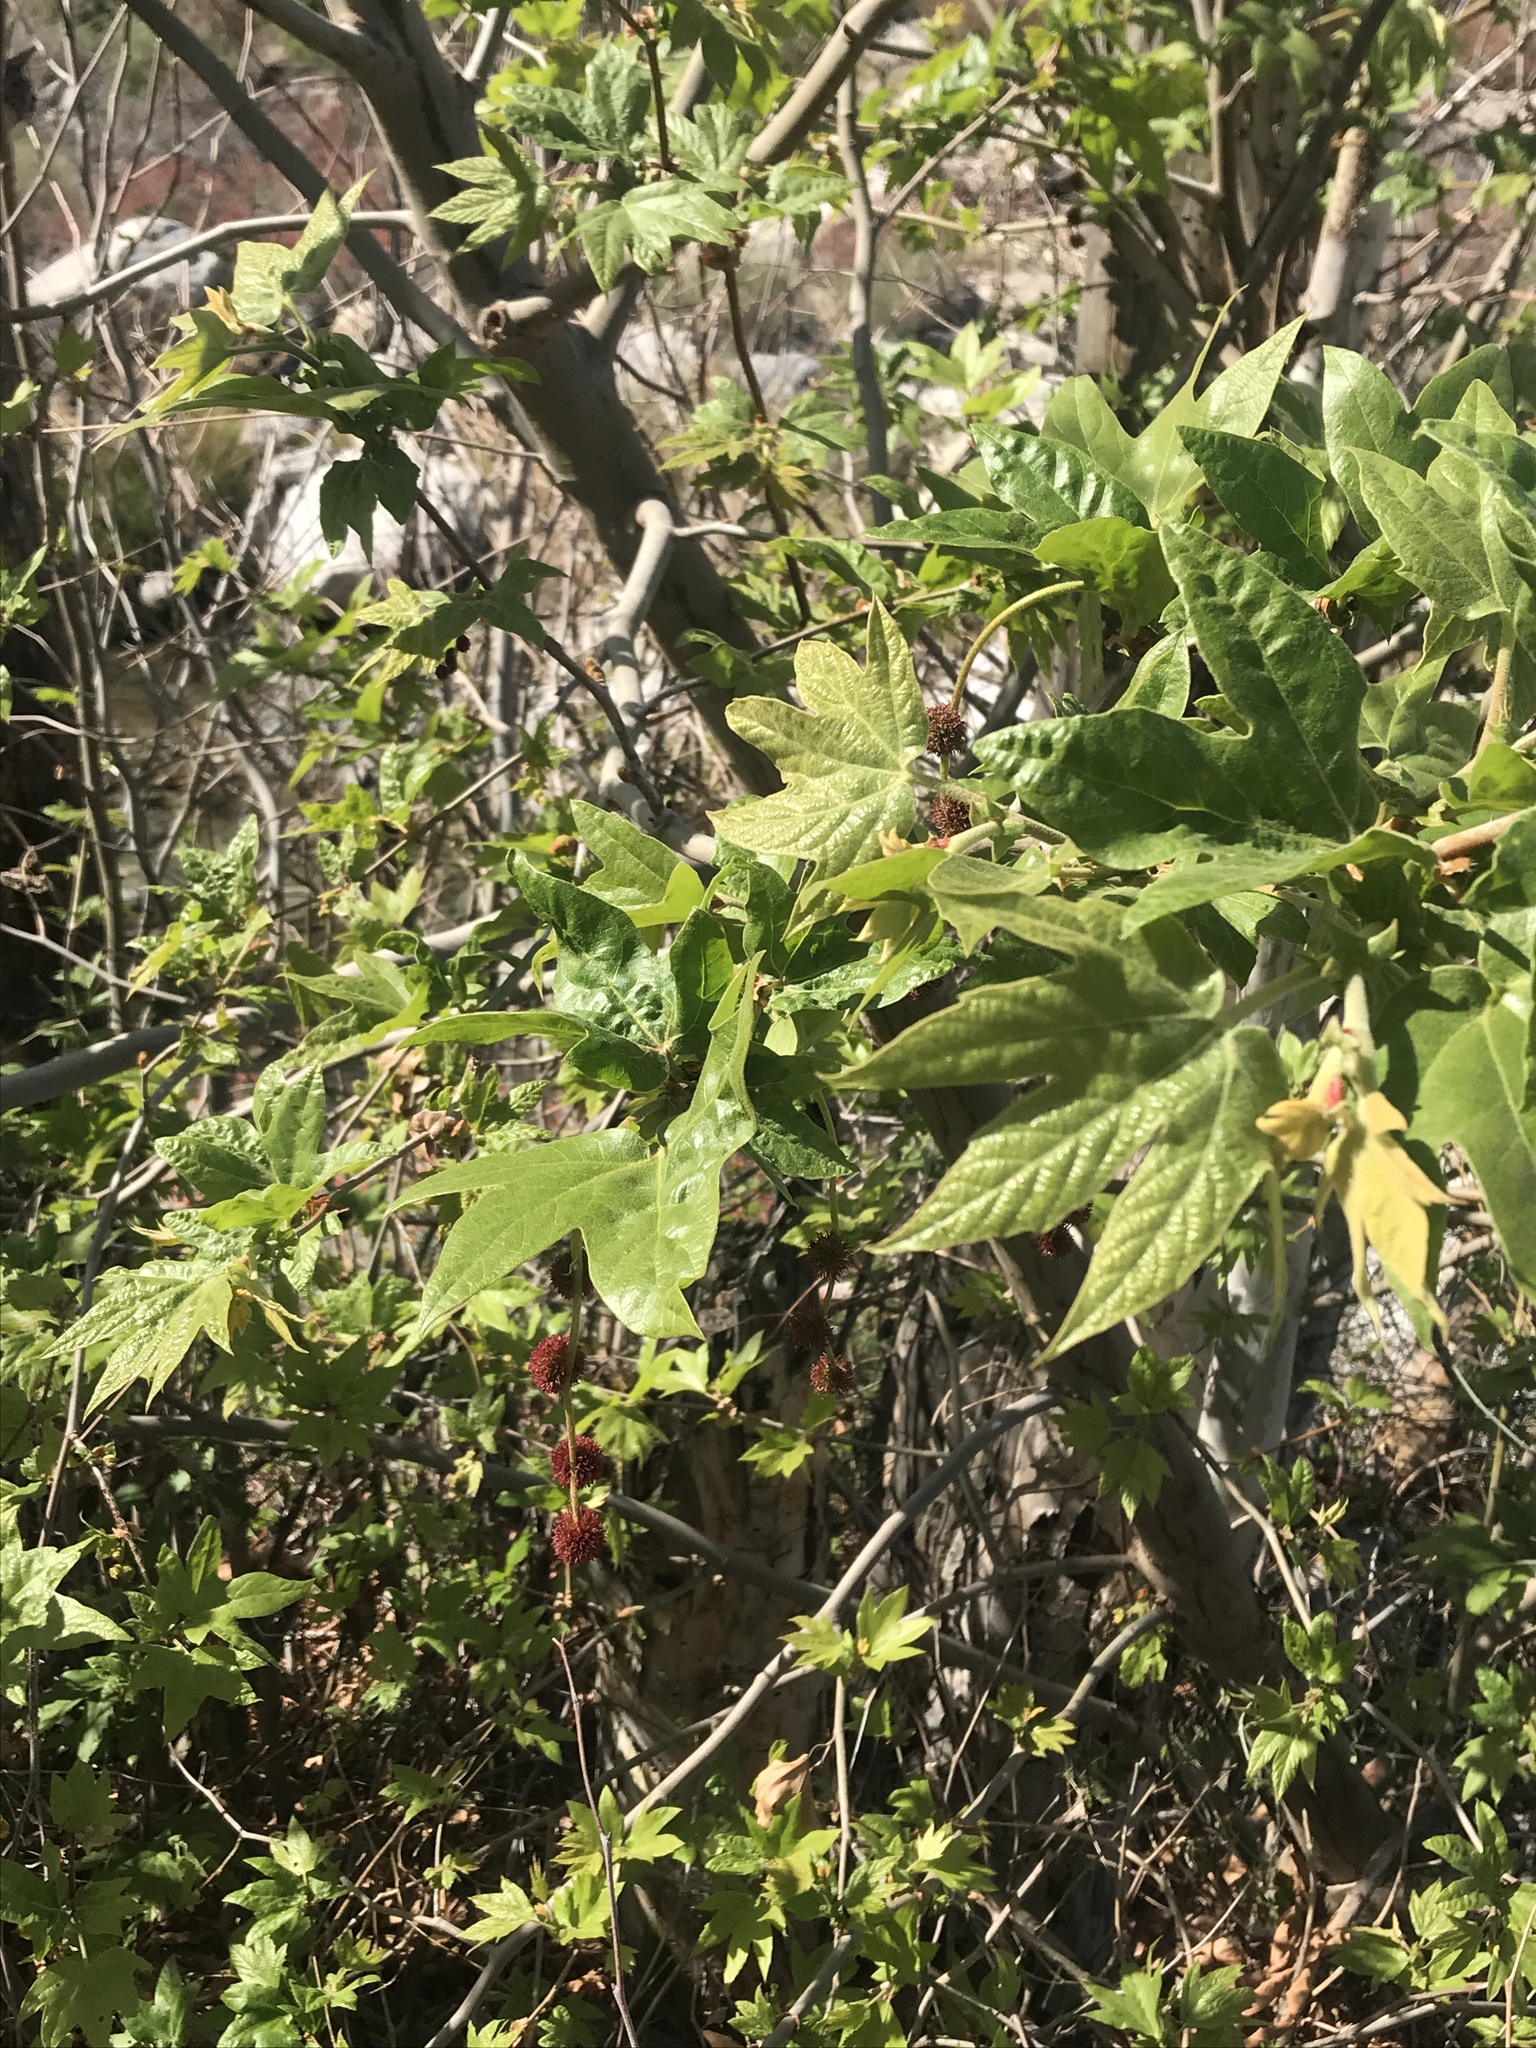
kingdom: Plantae
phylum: Tracheophyta
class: Magnoliopsida
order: Proteales
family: Platanaceae
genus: Platanus
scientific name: Platanus racemosa
